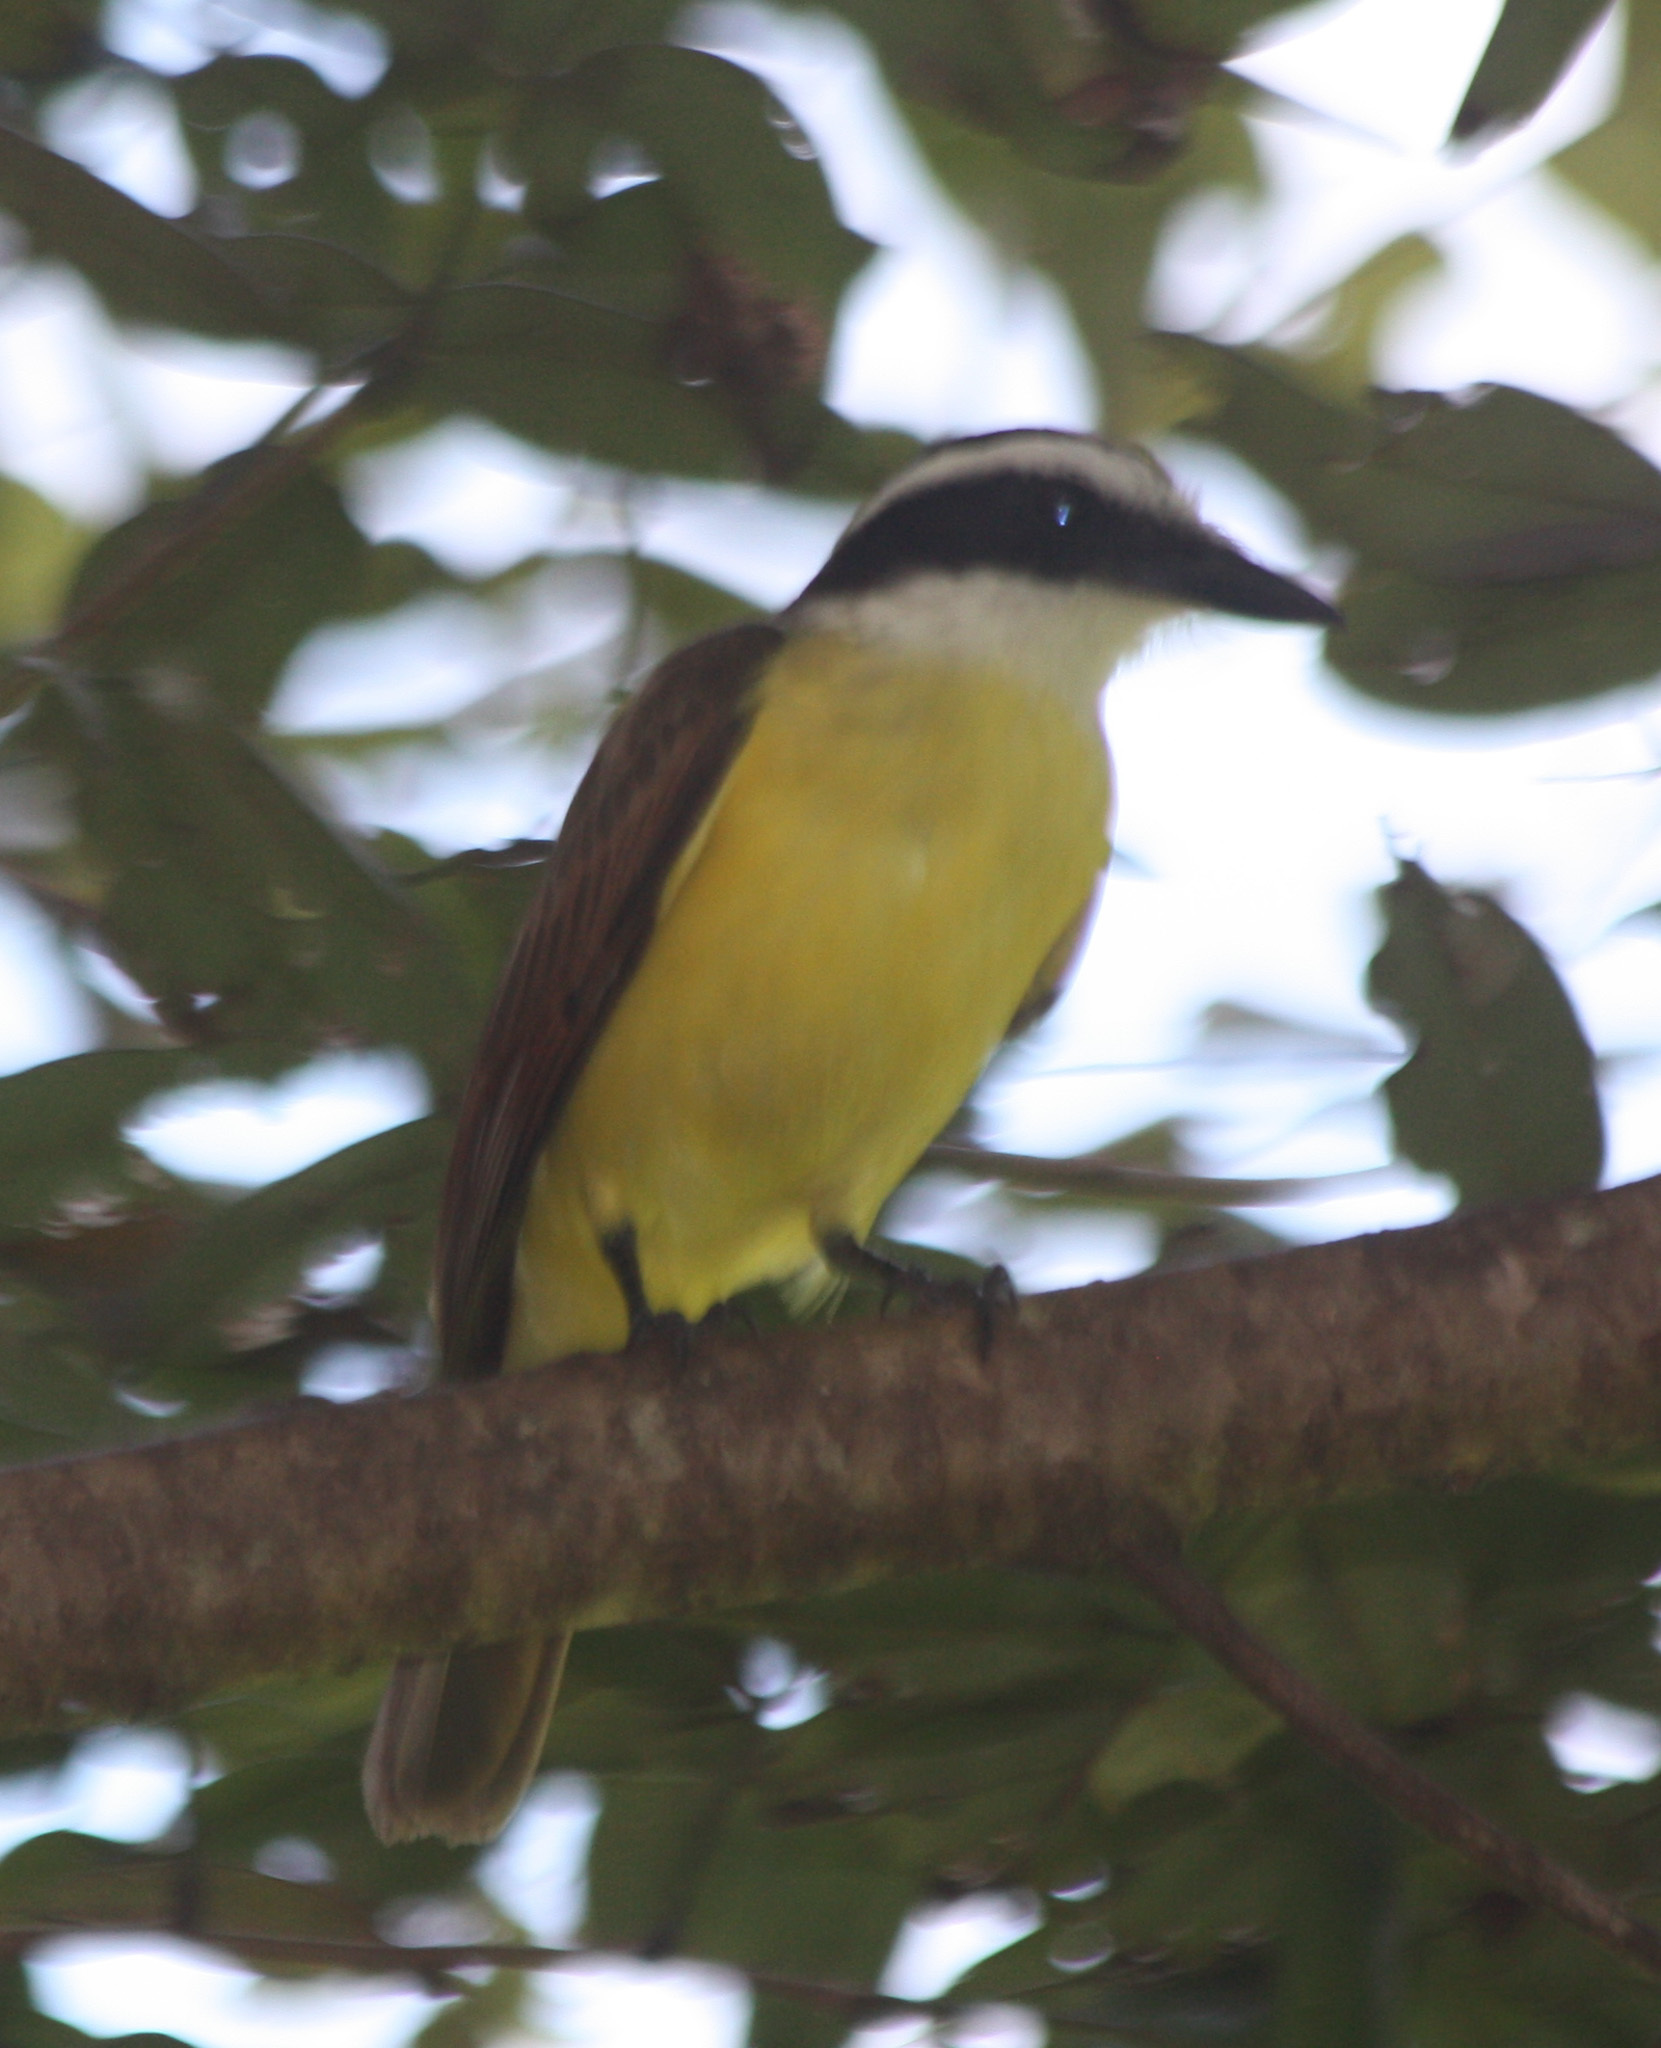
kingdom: Animalia
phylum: Chordata
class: Aves
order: Passeriformes
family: Tyrannidae
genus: Pitangus
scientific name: Pitangus sulphuratus
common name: Great kiskadee
